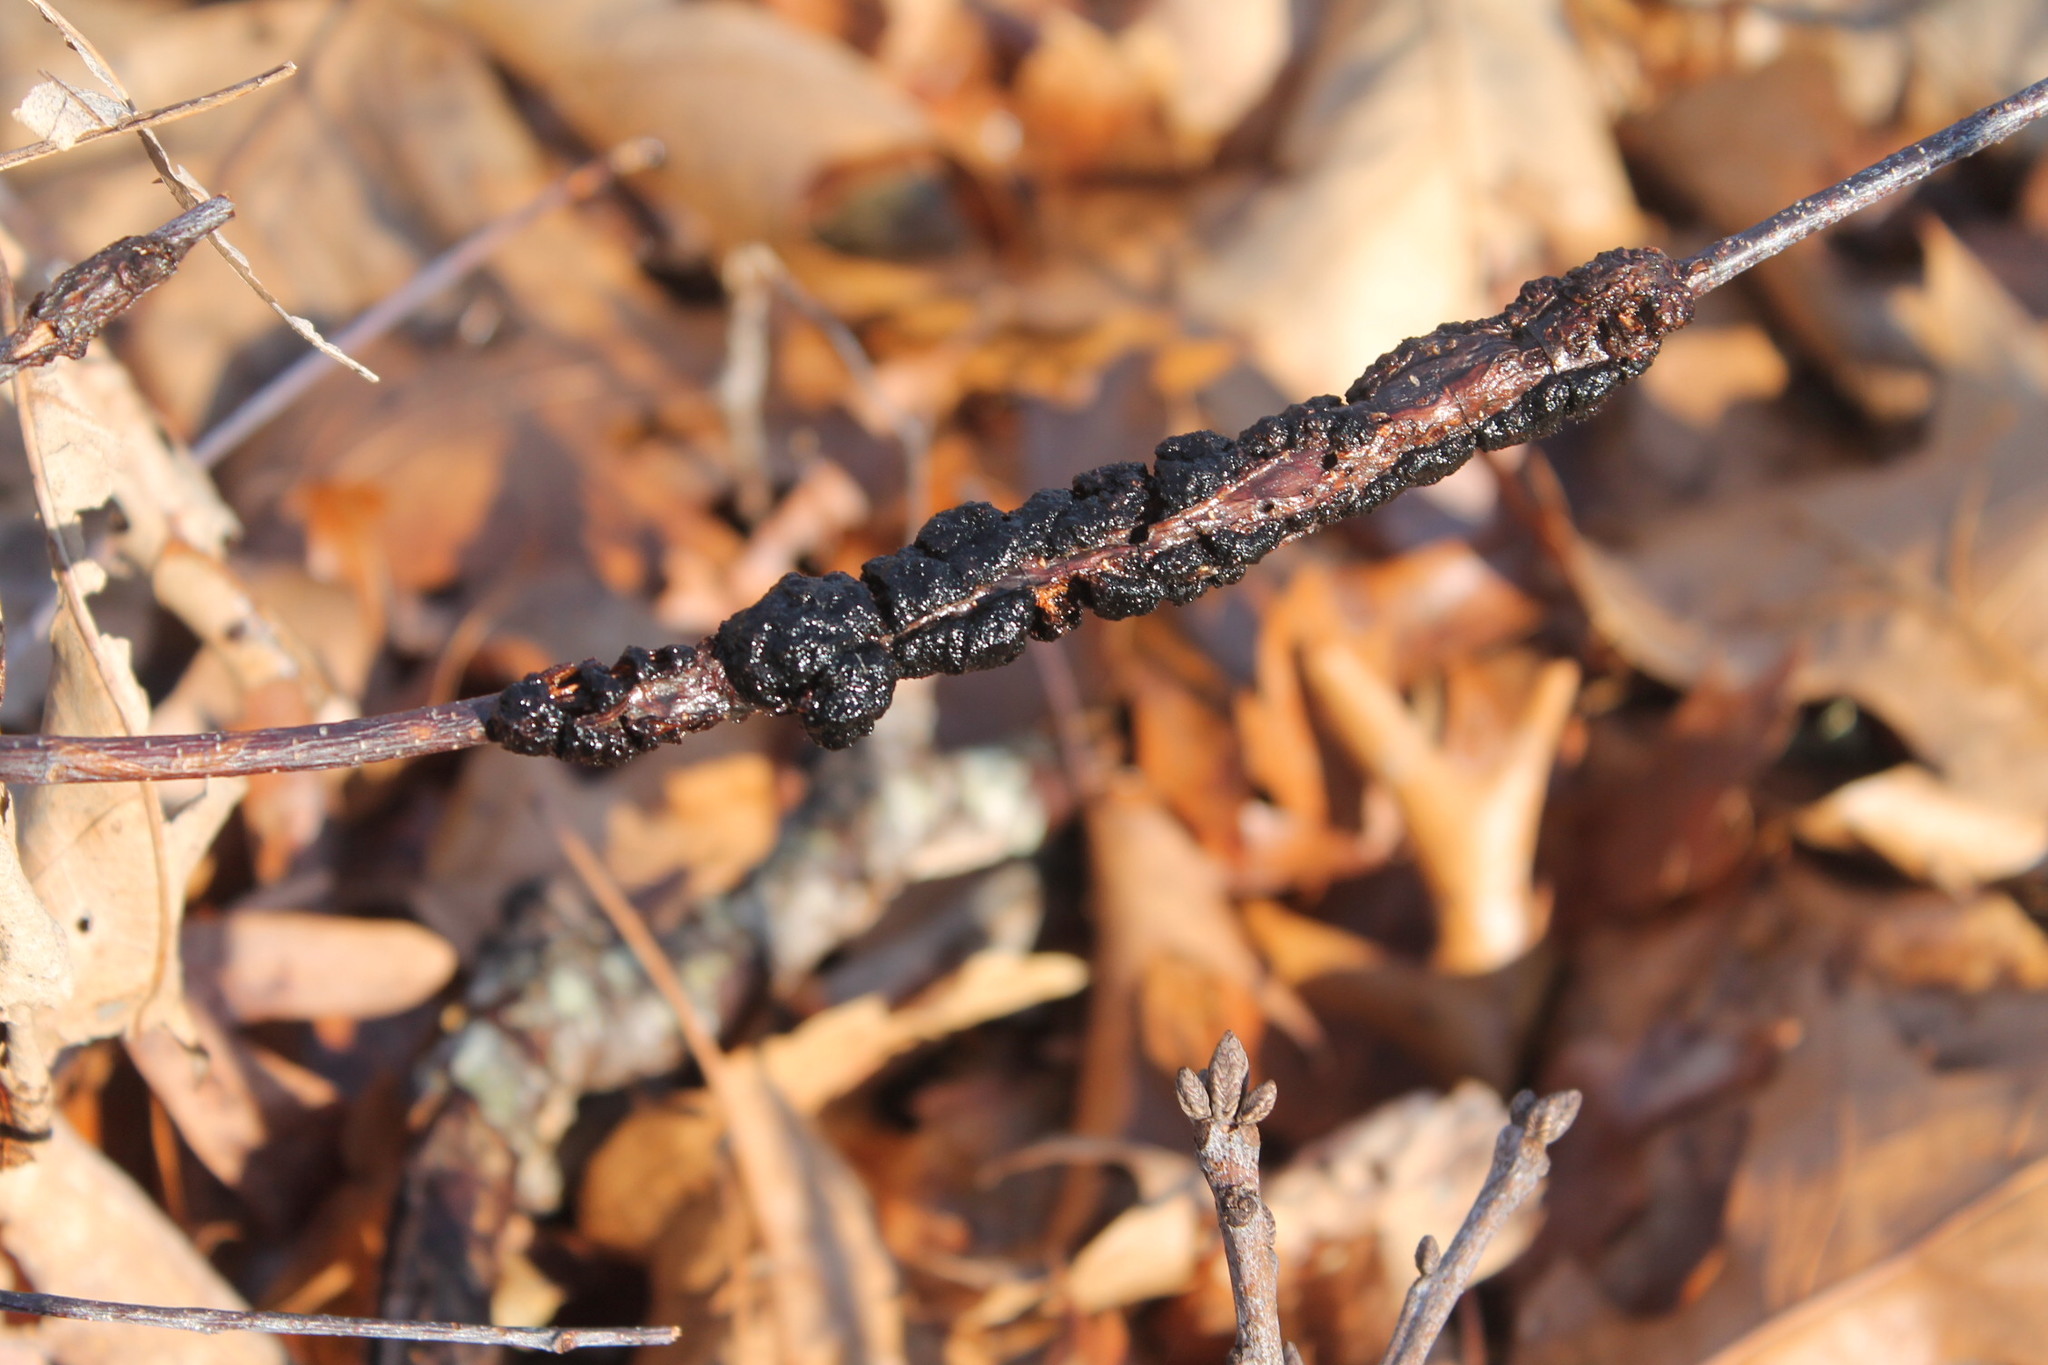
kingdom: Fungi
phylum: Ascomycota
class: Dothideomycetes
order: Venturiales
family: Venturiaceae
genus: Apiosporina
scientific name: Apiosporina morbosa
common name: Black knot
